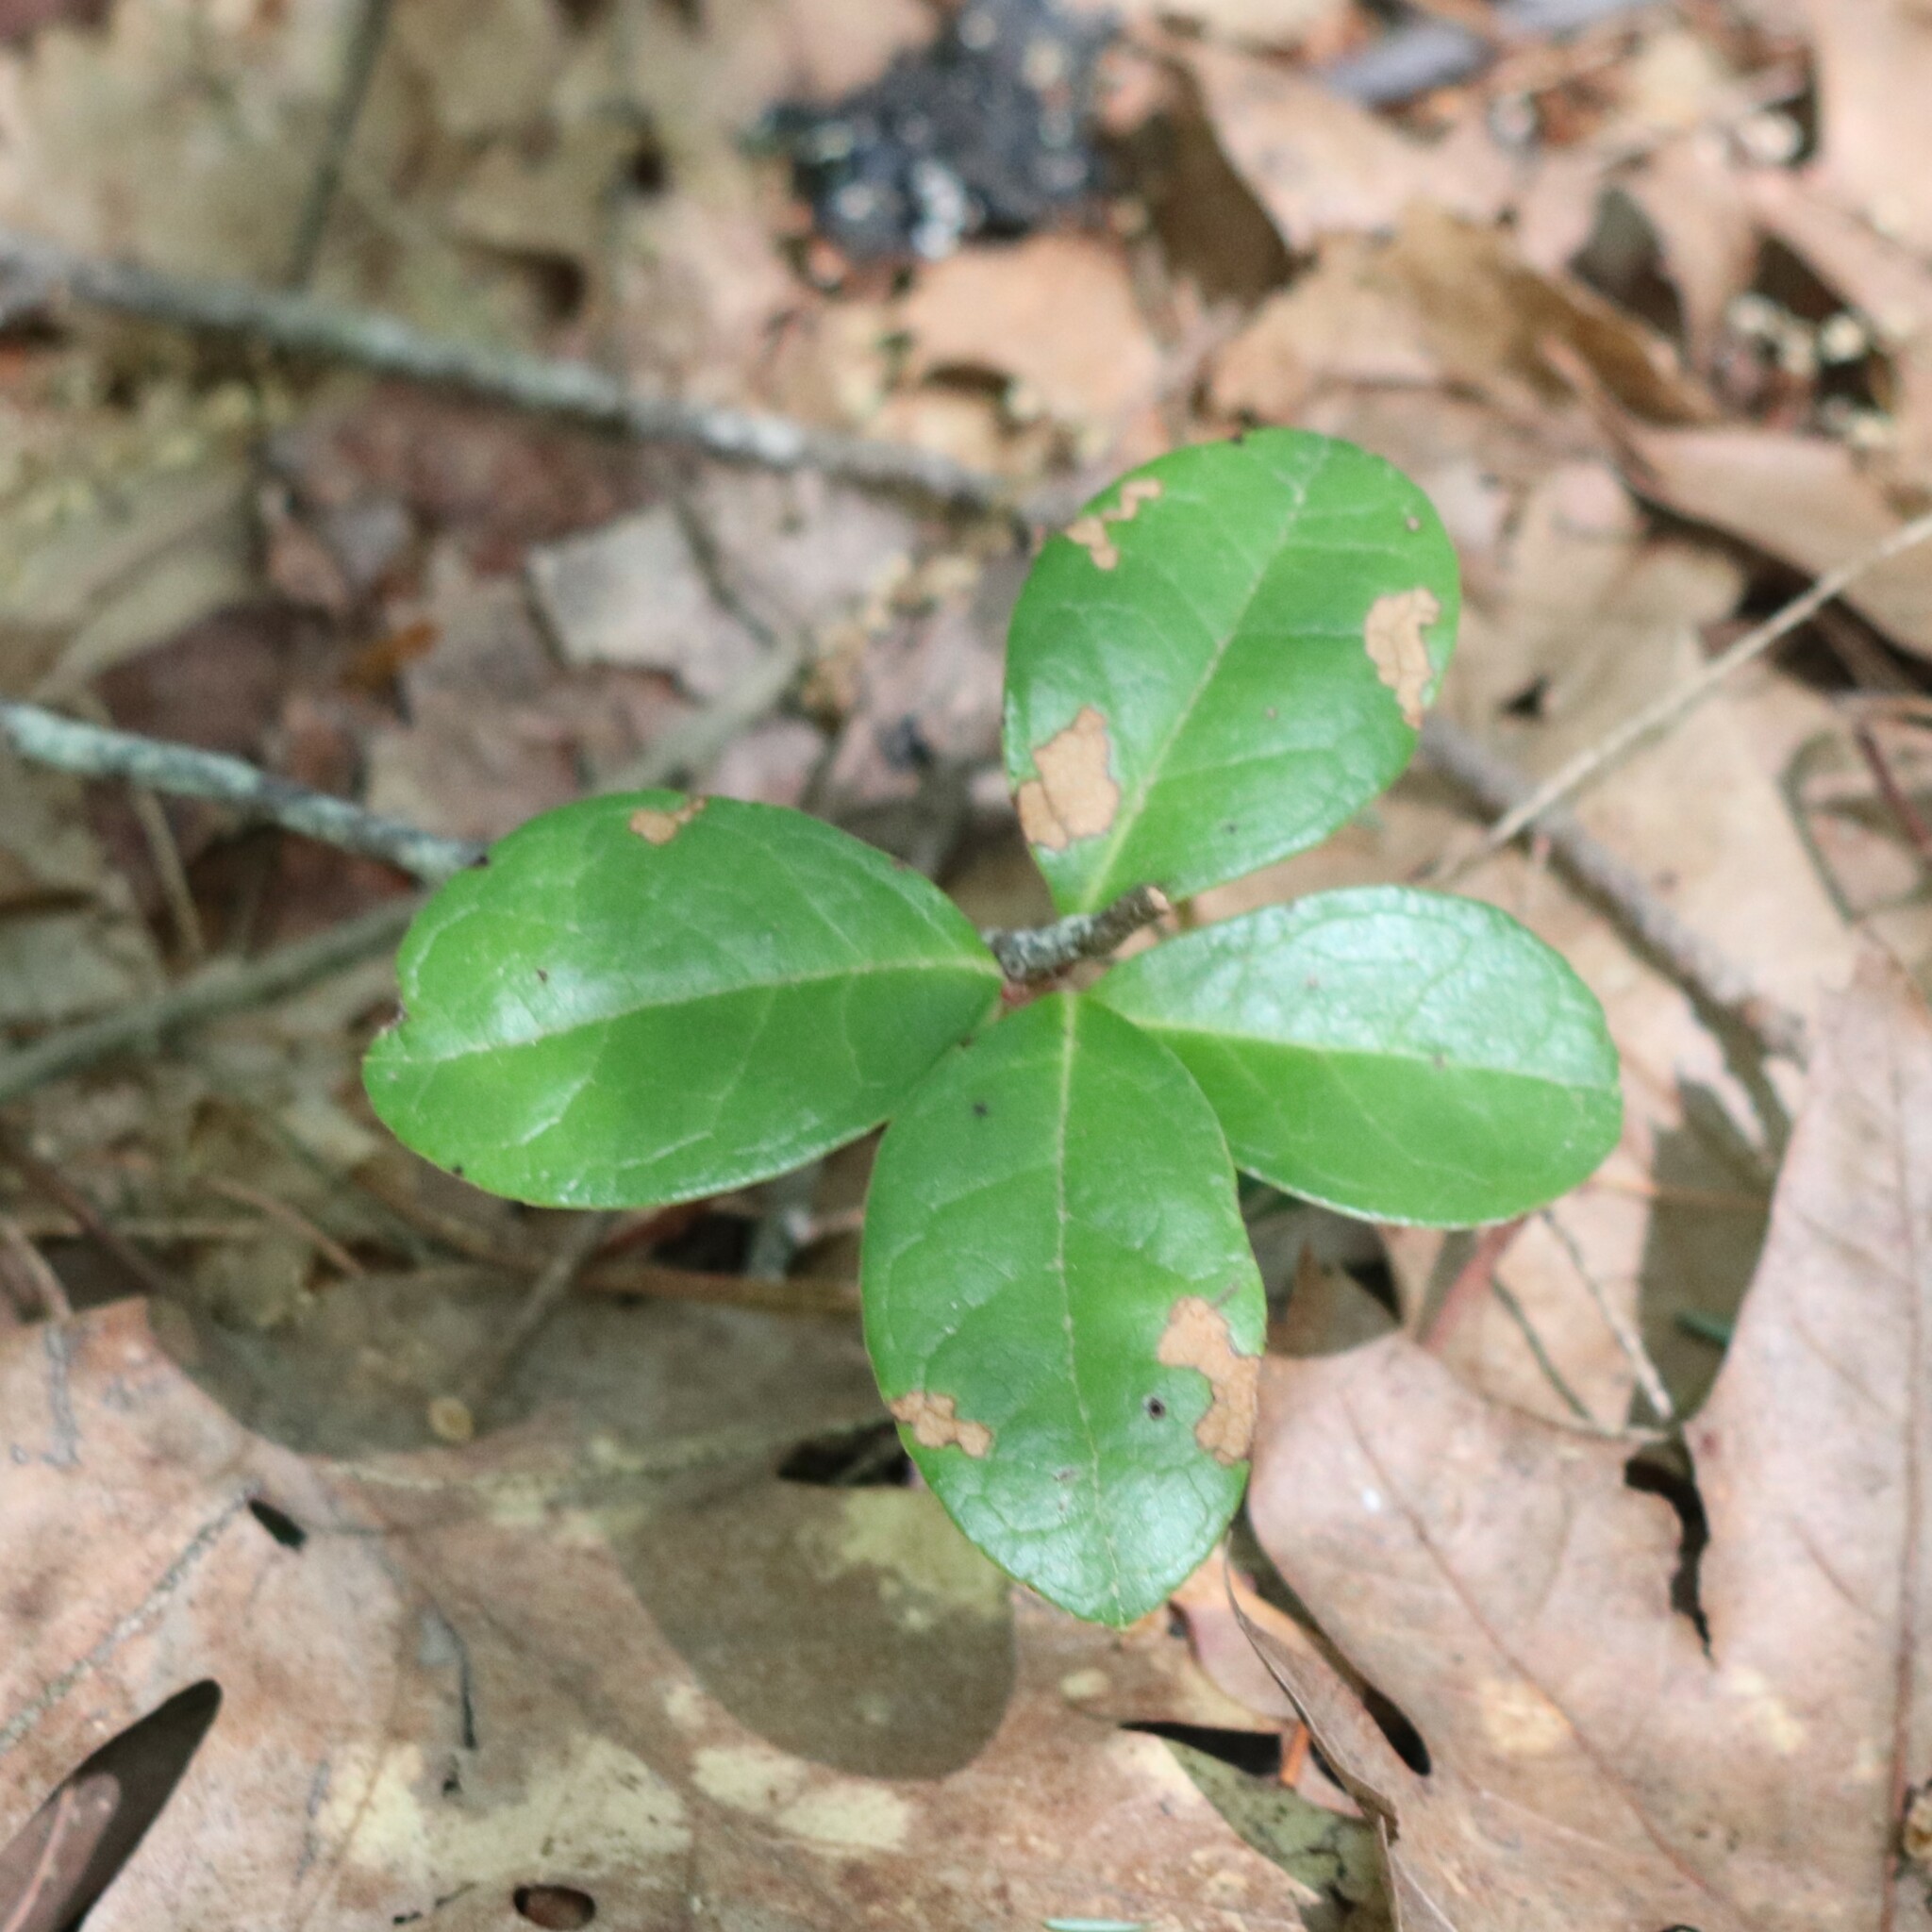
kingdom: Plantae
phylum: Tracheophyta
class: Magnoliopsida
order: Ericales
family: Ericaceae
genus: Gaultheria
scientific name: Gaultheria procumbens
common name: Checkerberry
